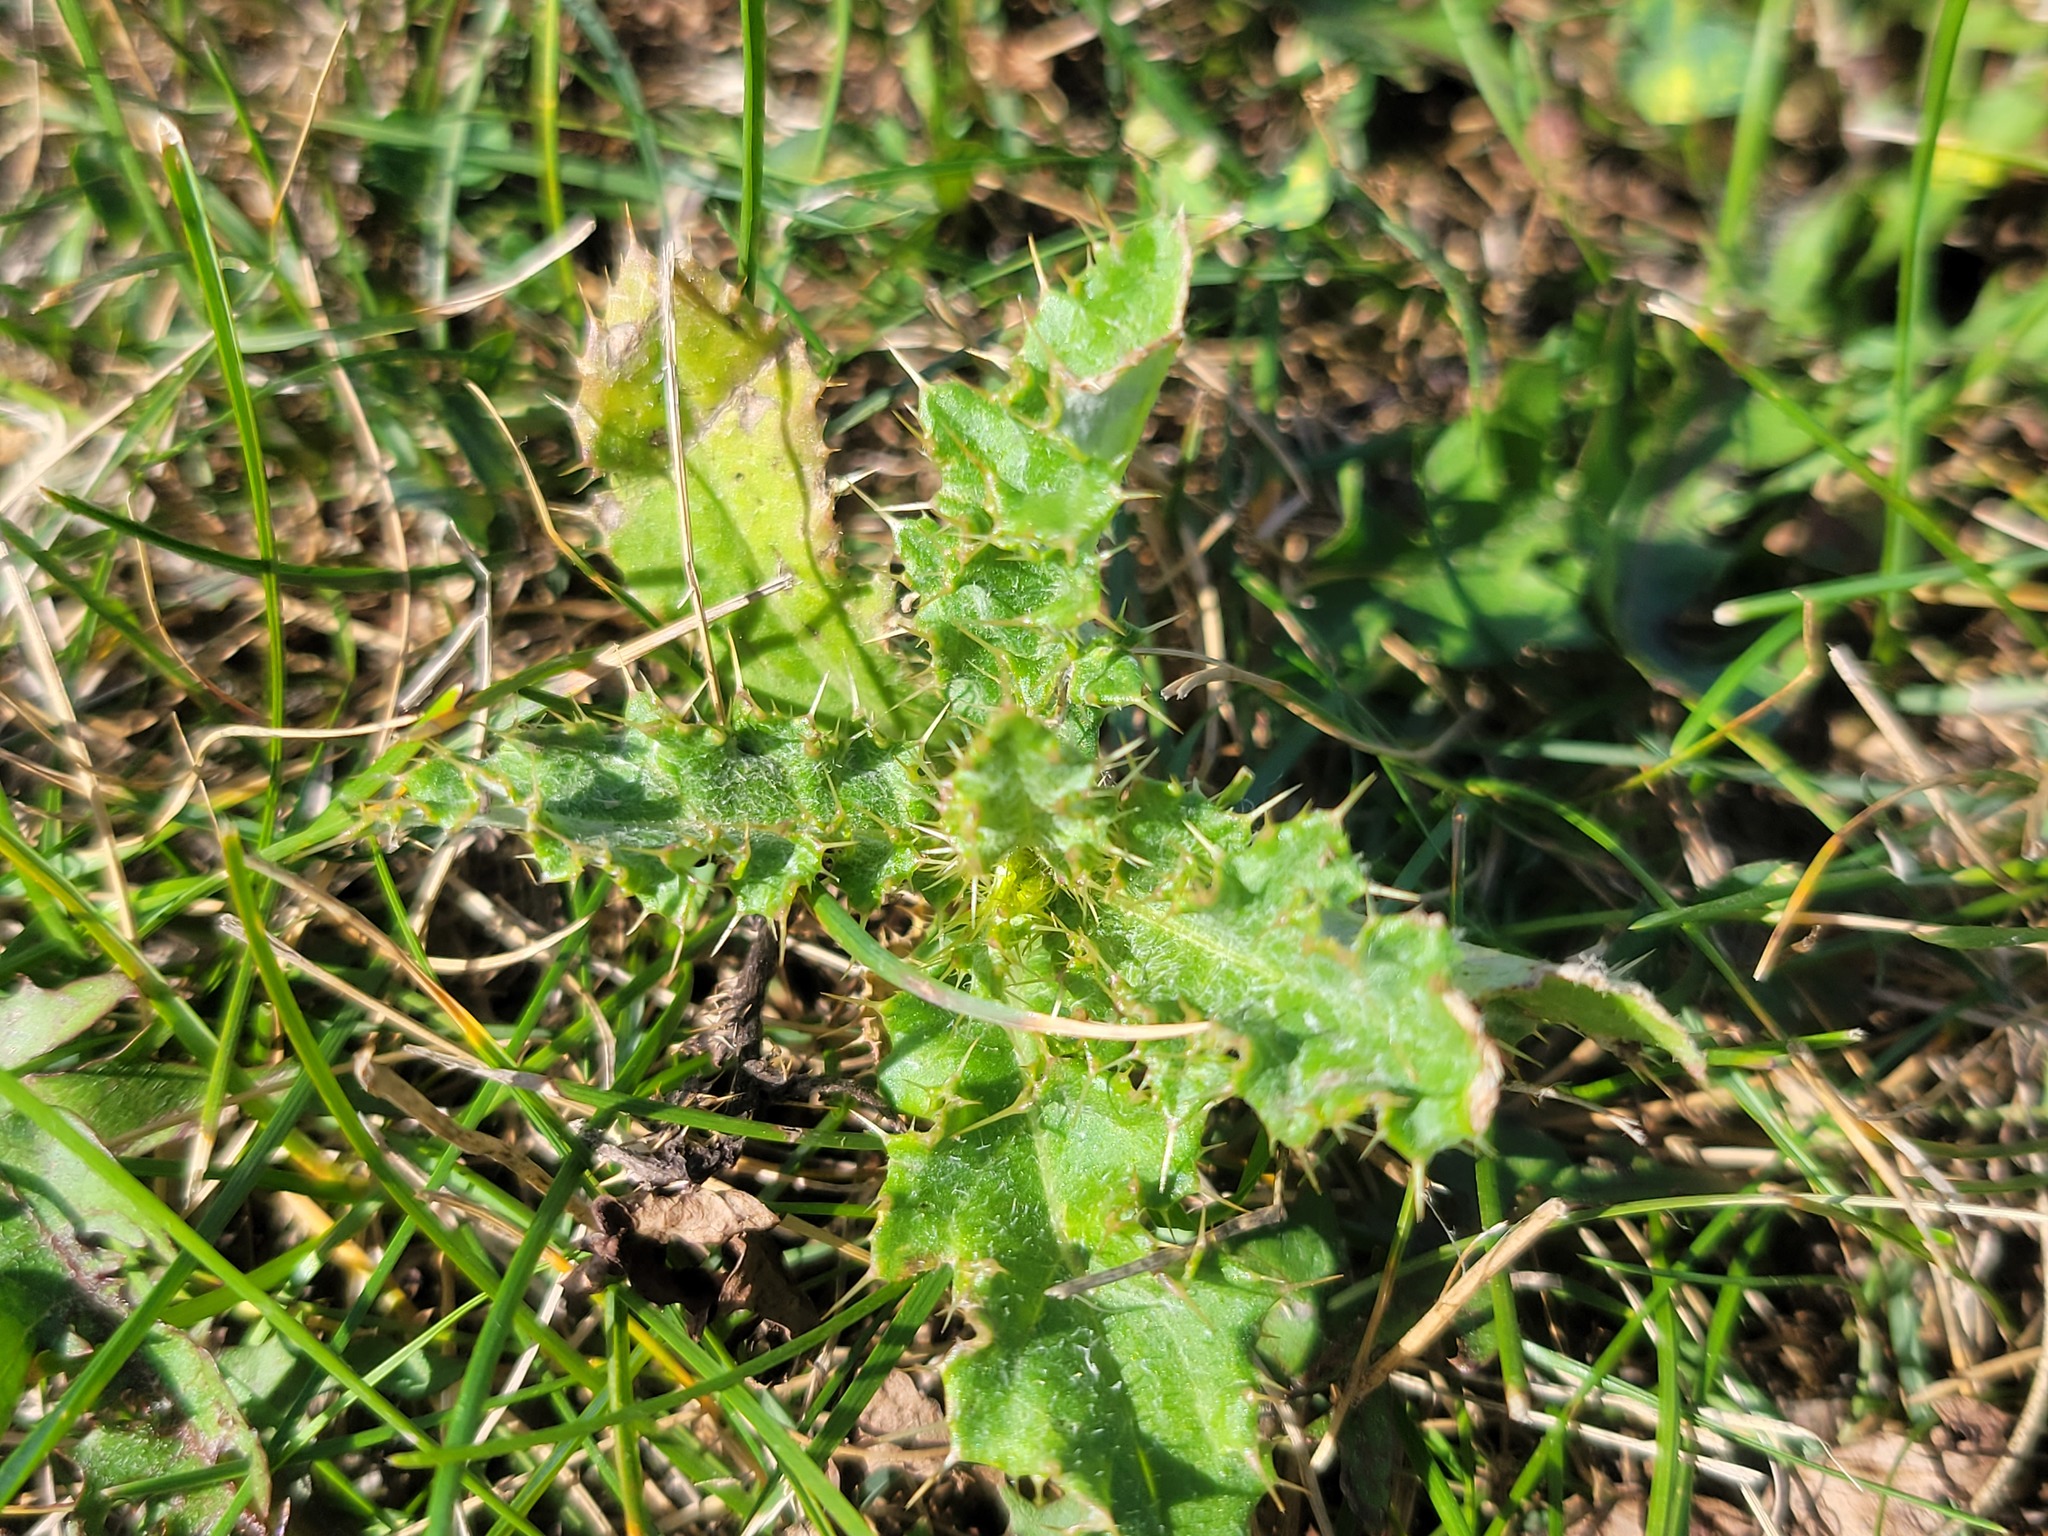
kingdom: Plantae
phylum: Tracheophyta
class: Magnoliopsida
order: Asterales
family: Asteraceae
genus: Cirsium
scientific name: Cirsium arvense
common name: Creeping thistle
